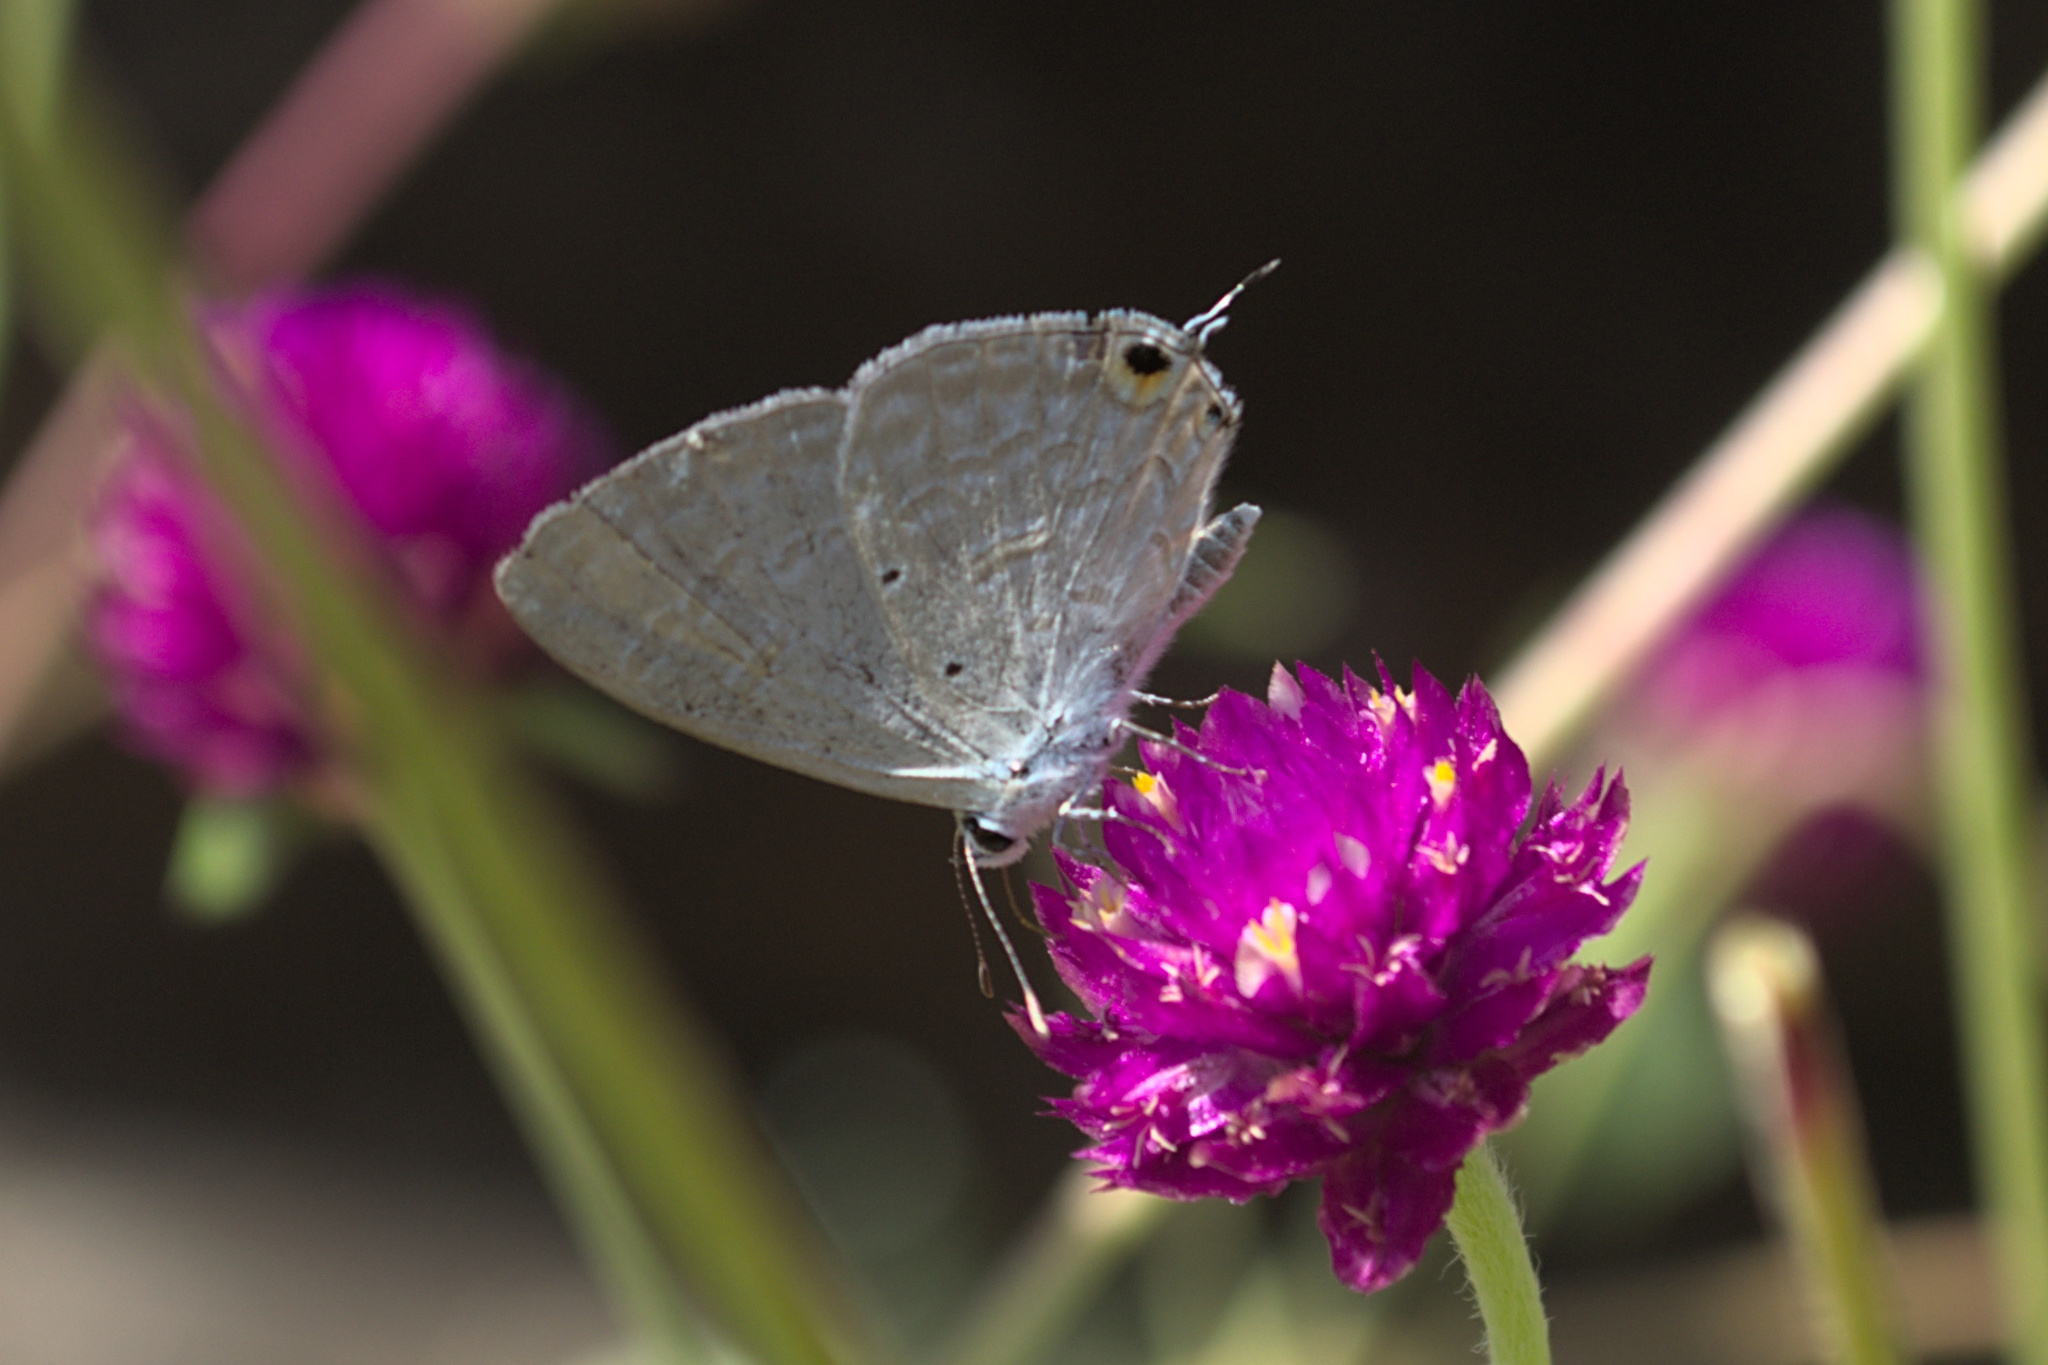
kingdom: Animalia
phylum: Arthropoda
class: Insecta
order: Lepidoptera
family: Lycaenidae
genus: Catochrysops
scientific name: Catochrysops strabo
